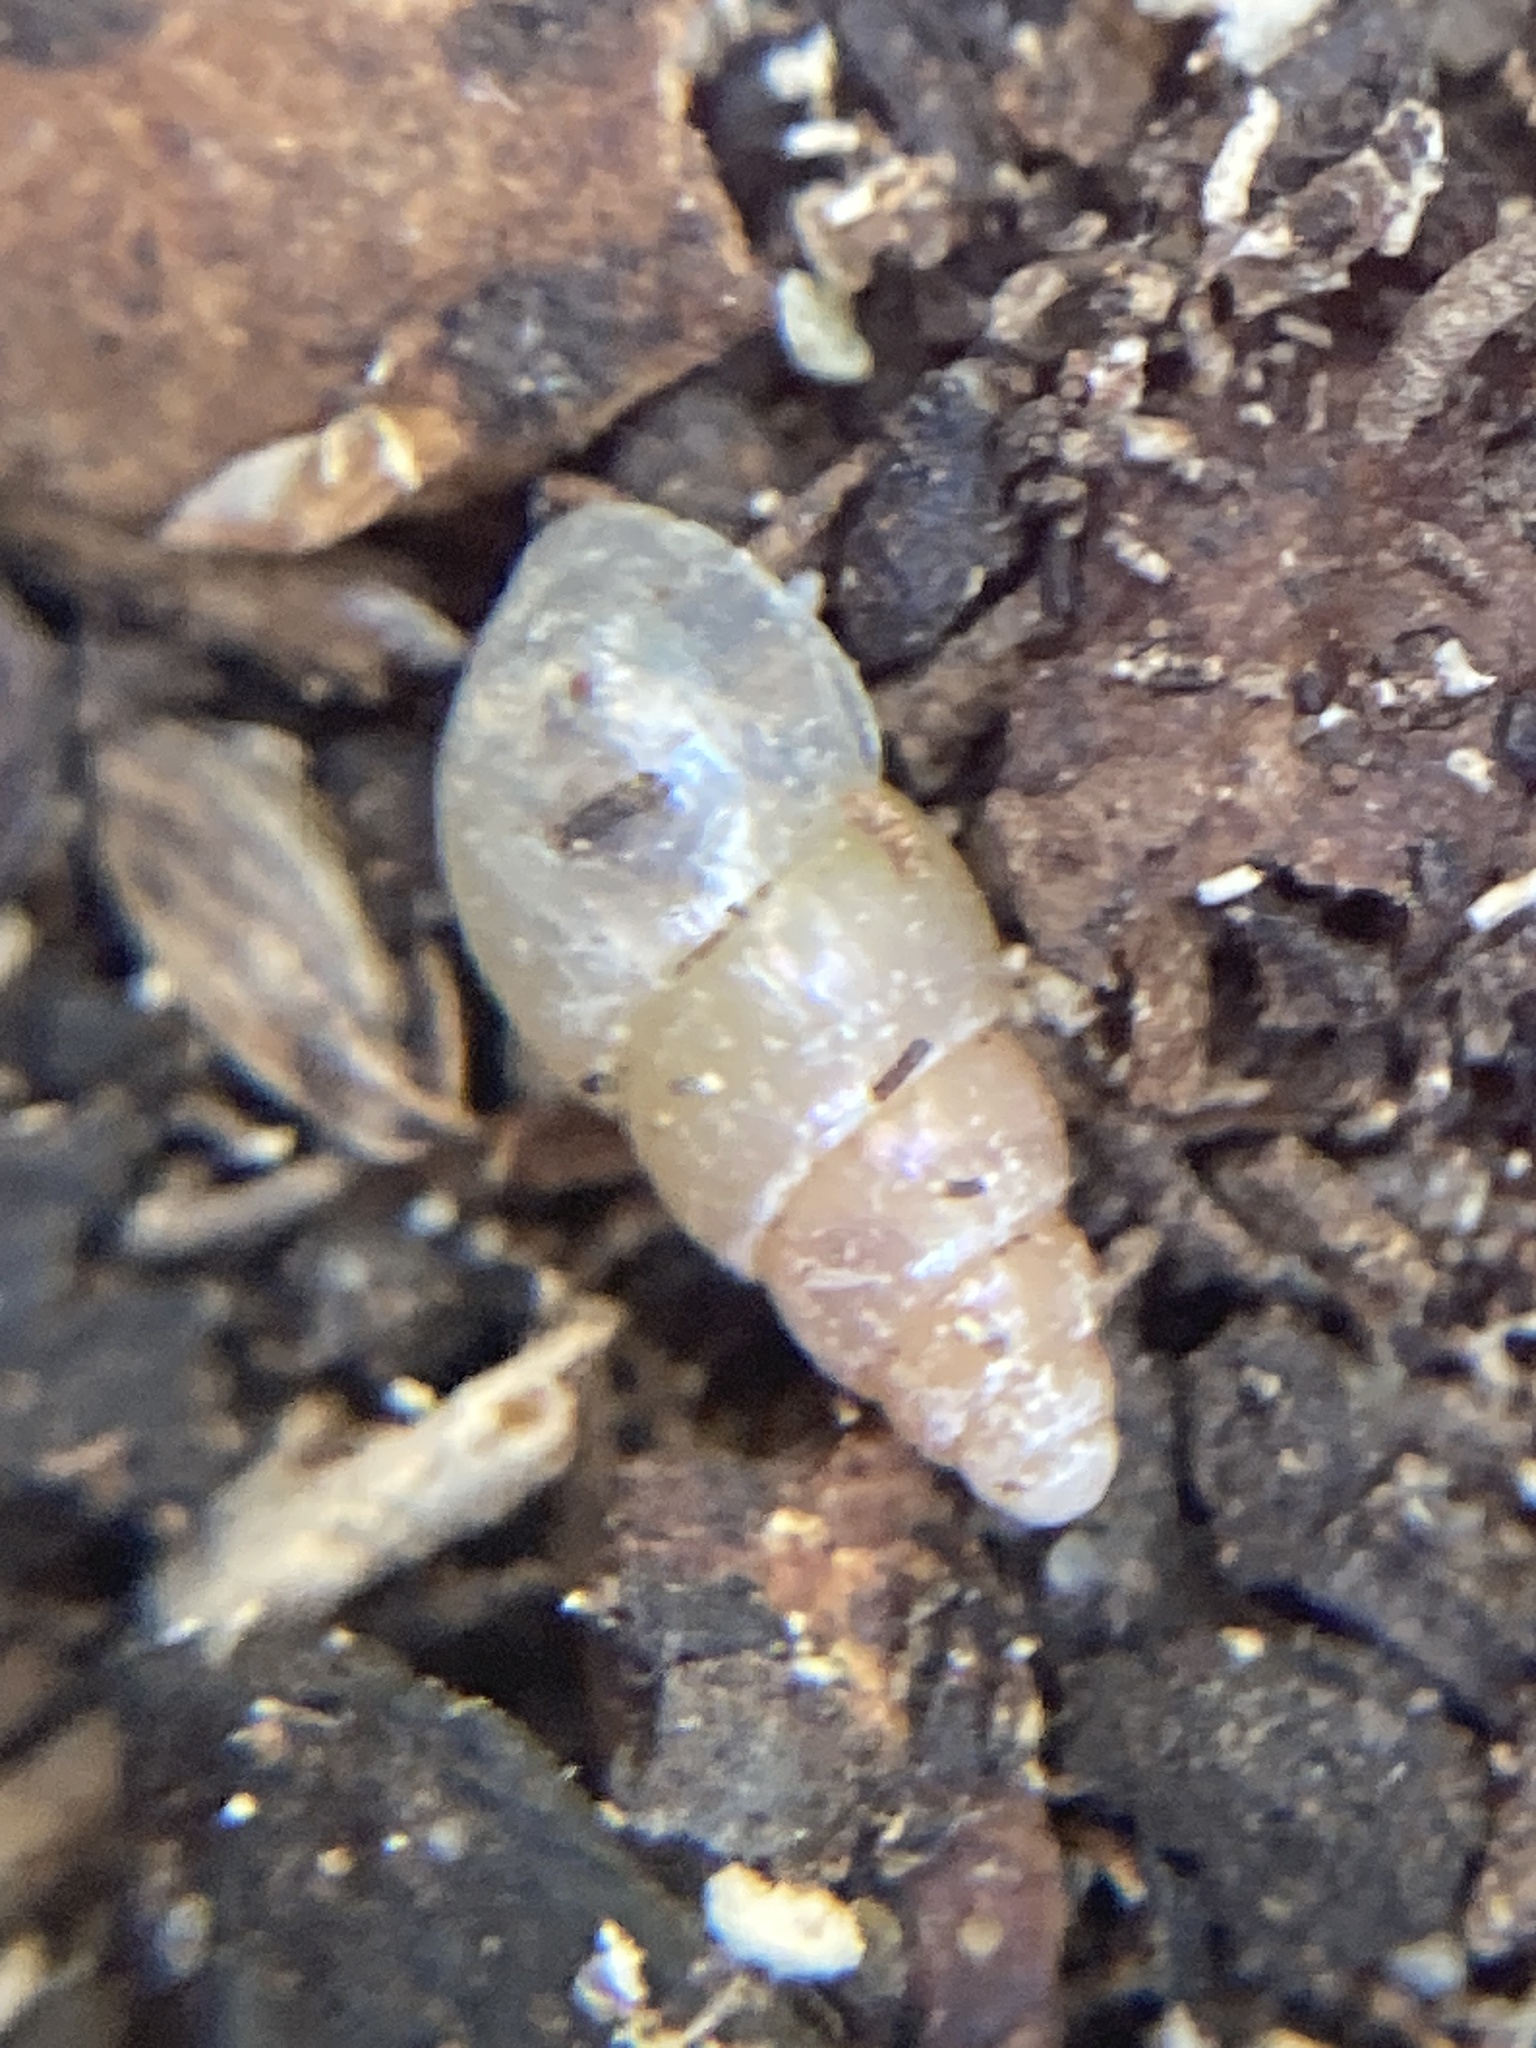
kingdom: Animalia
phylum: Mollusca
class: Gastropoda
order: Stylommatophora
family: Achatinidae
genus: Allopeas
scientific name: Allopeas clavulinum
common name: Spike awlsnail
